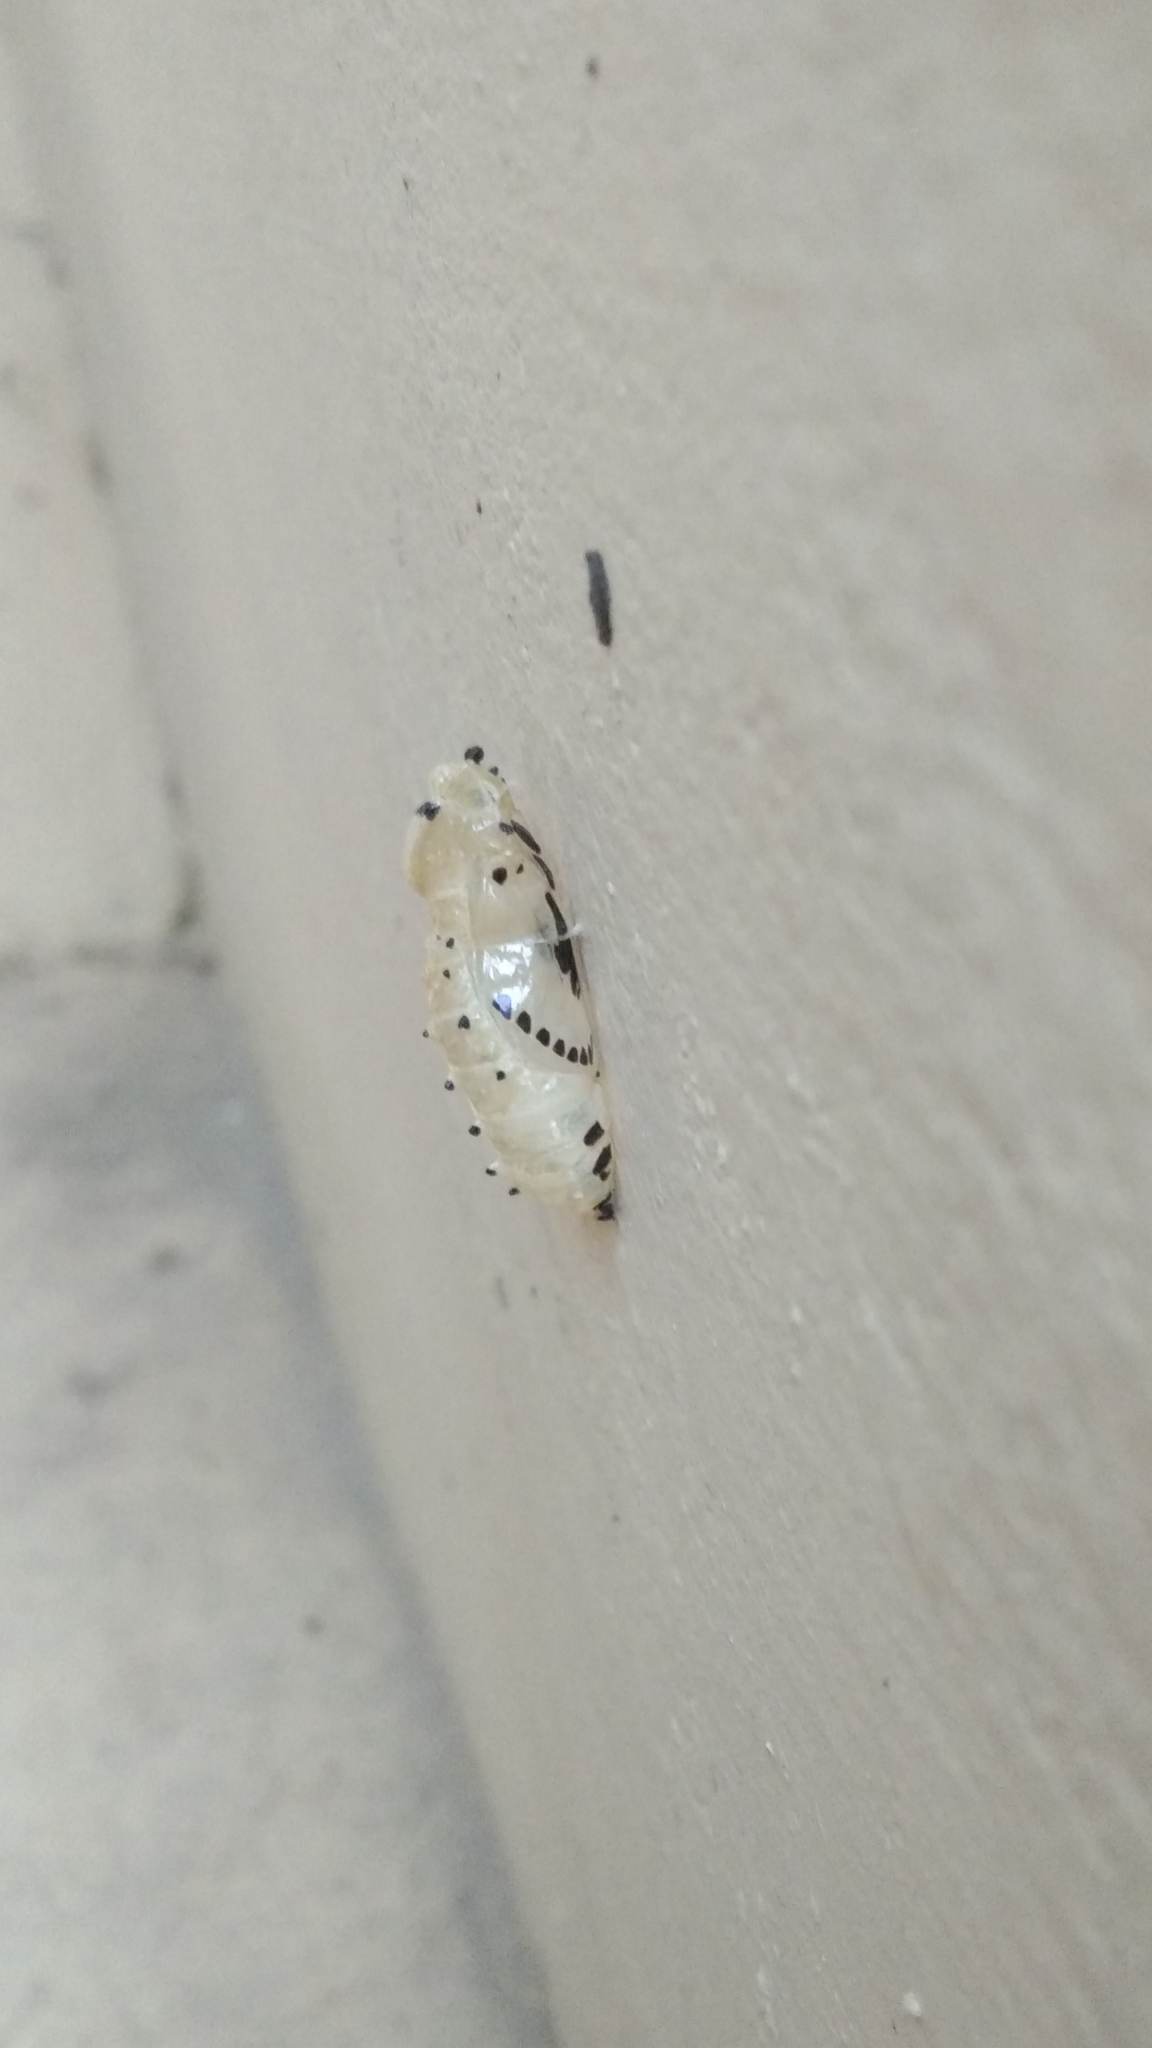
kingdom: Animalia
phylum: Arthropoda
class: Insecta
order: Lepidoptera
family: Pieridae
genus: Delias
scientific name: Delias eucharis
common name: Common jezebel
